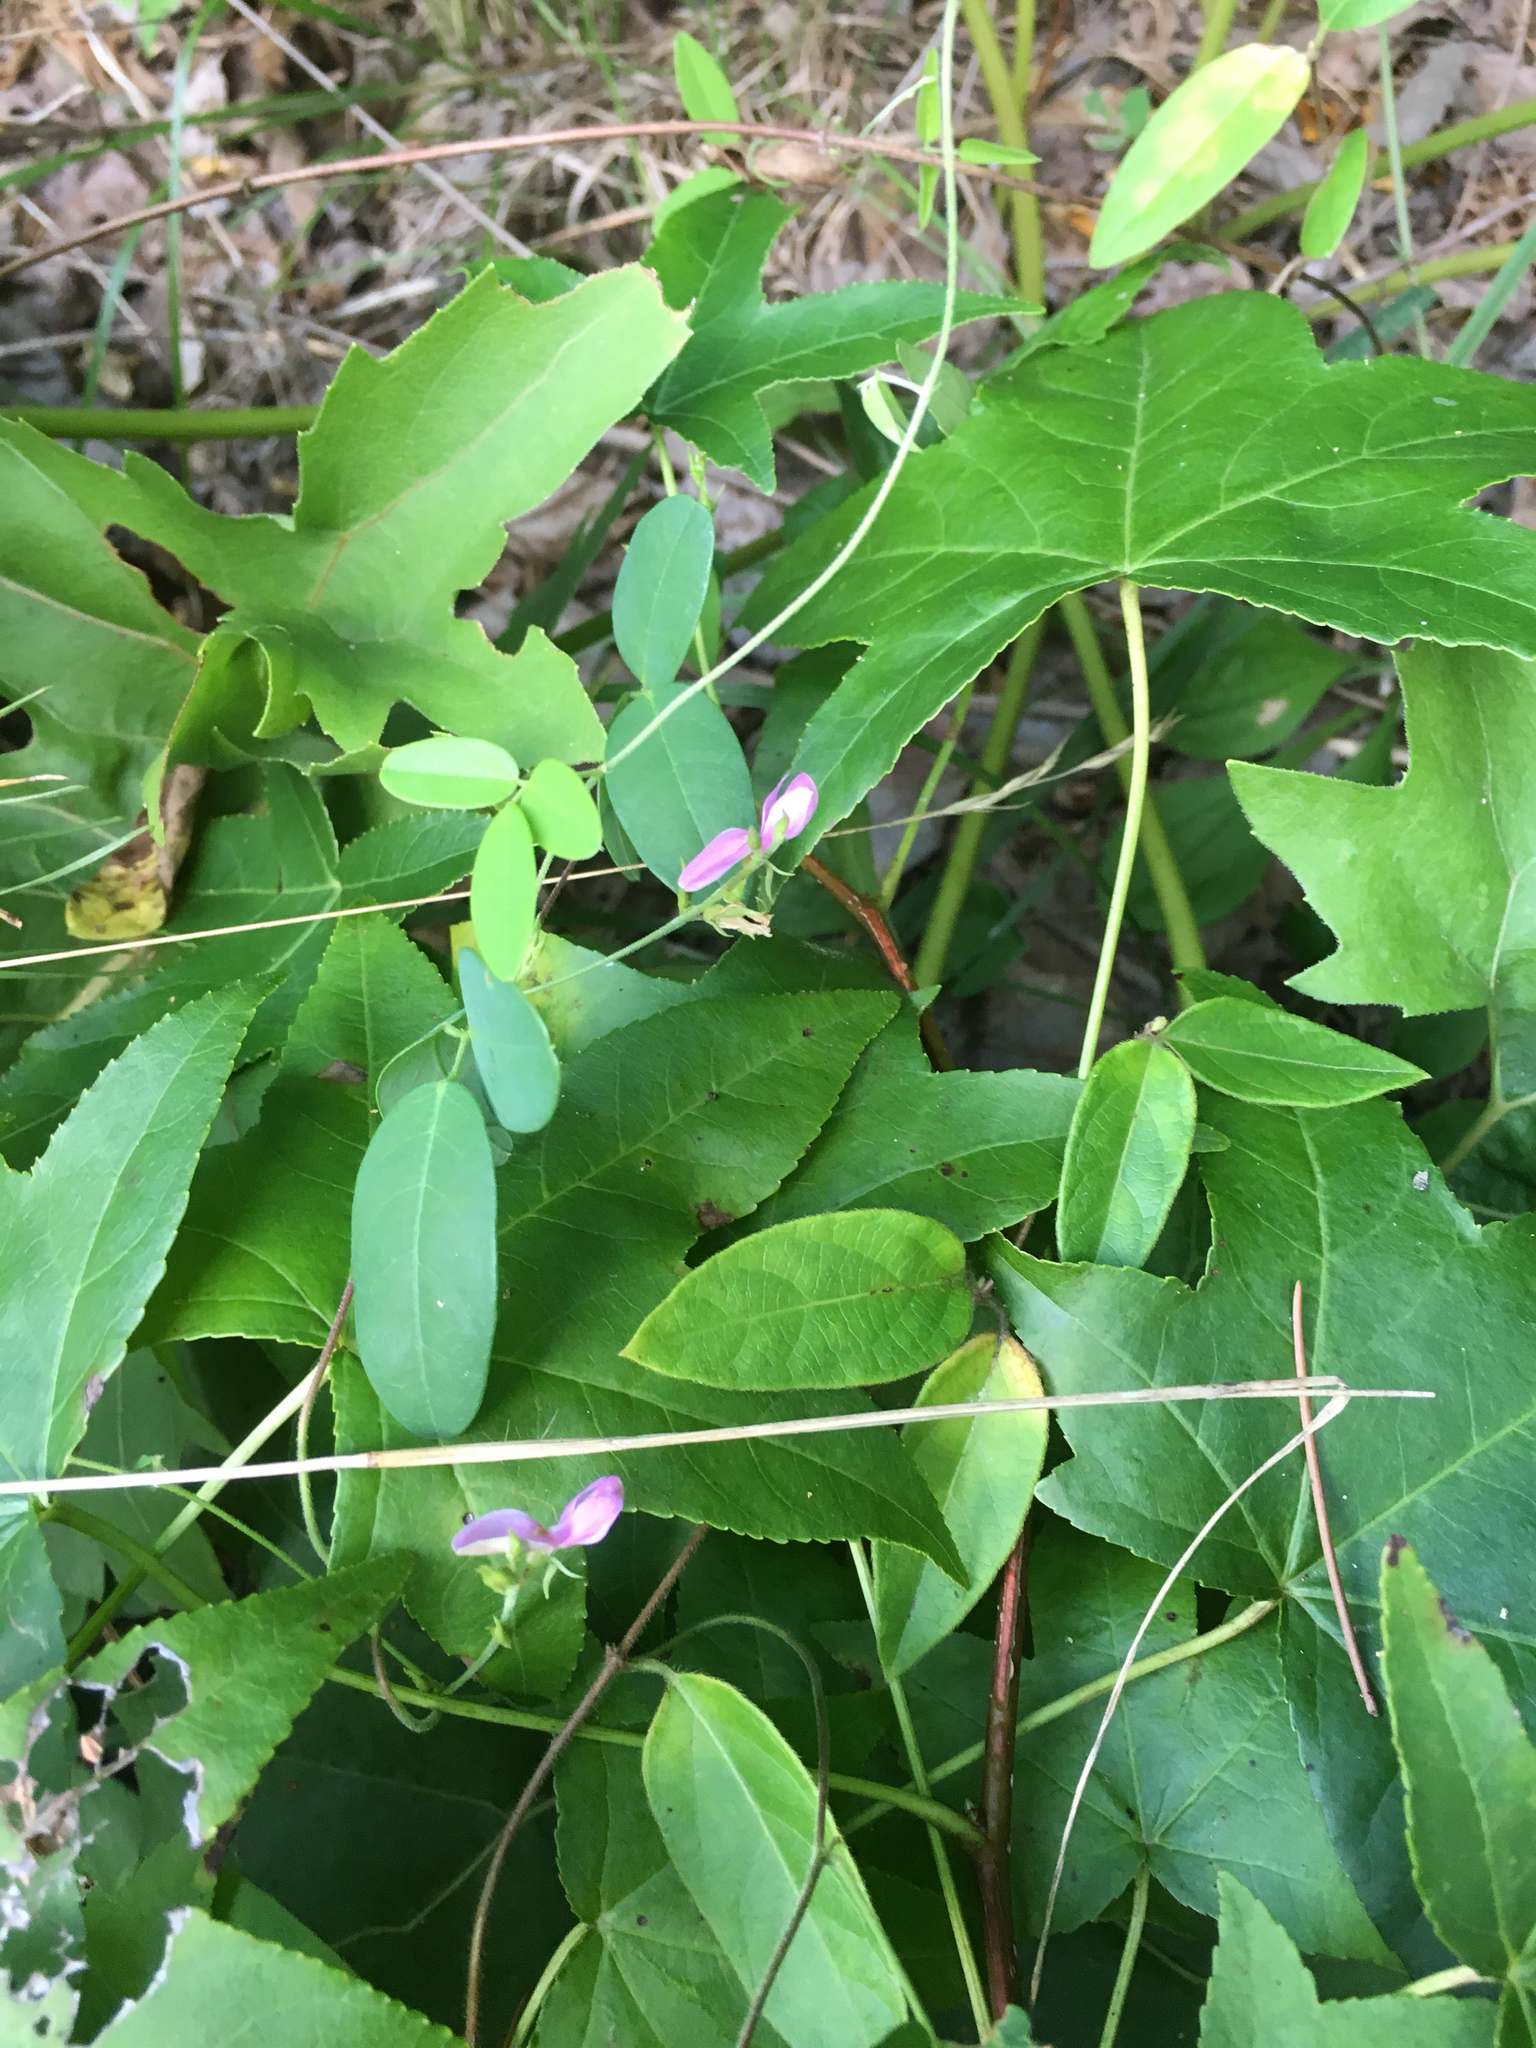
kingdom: Plantae
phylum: Tracheophyta
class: Magnoliopsida
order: Fabales
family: Fabaceae
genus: Galactia
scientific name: Galactia regularis
